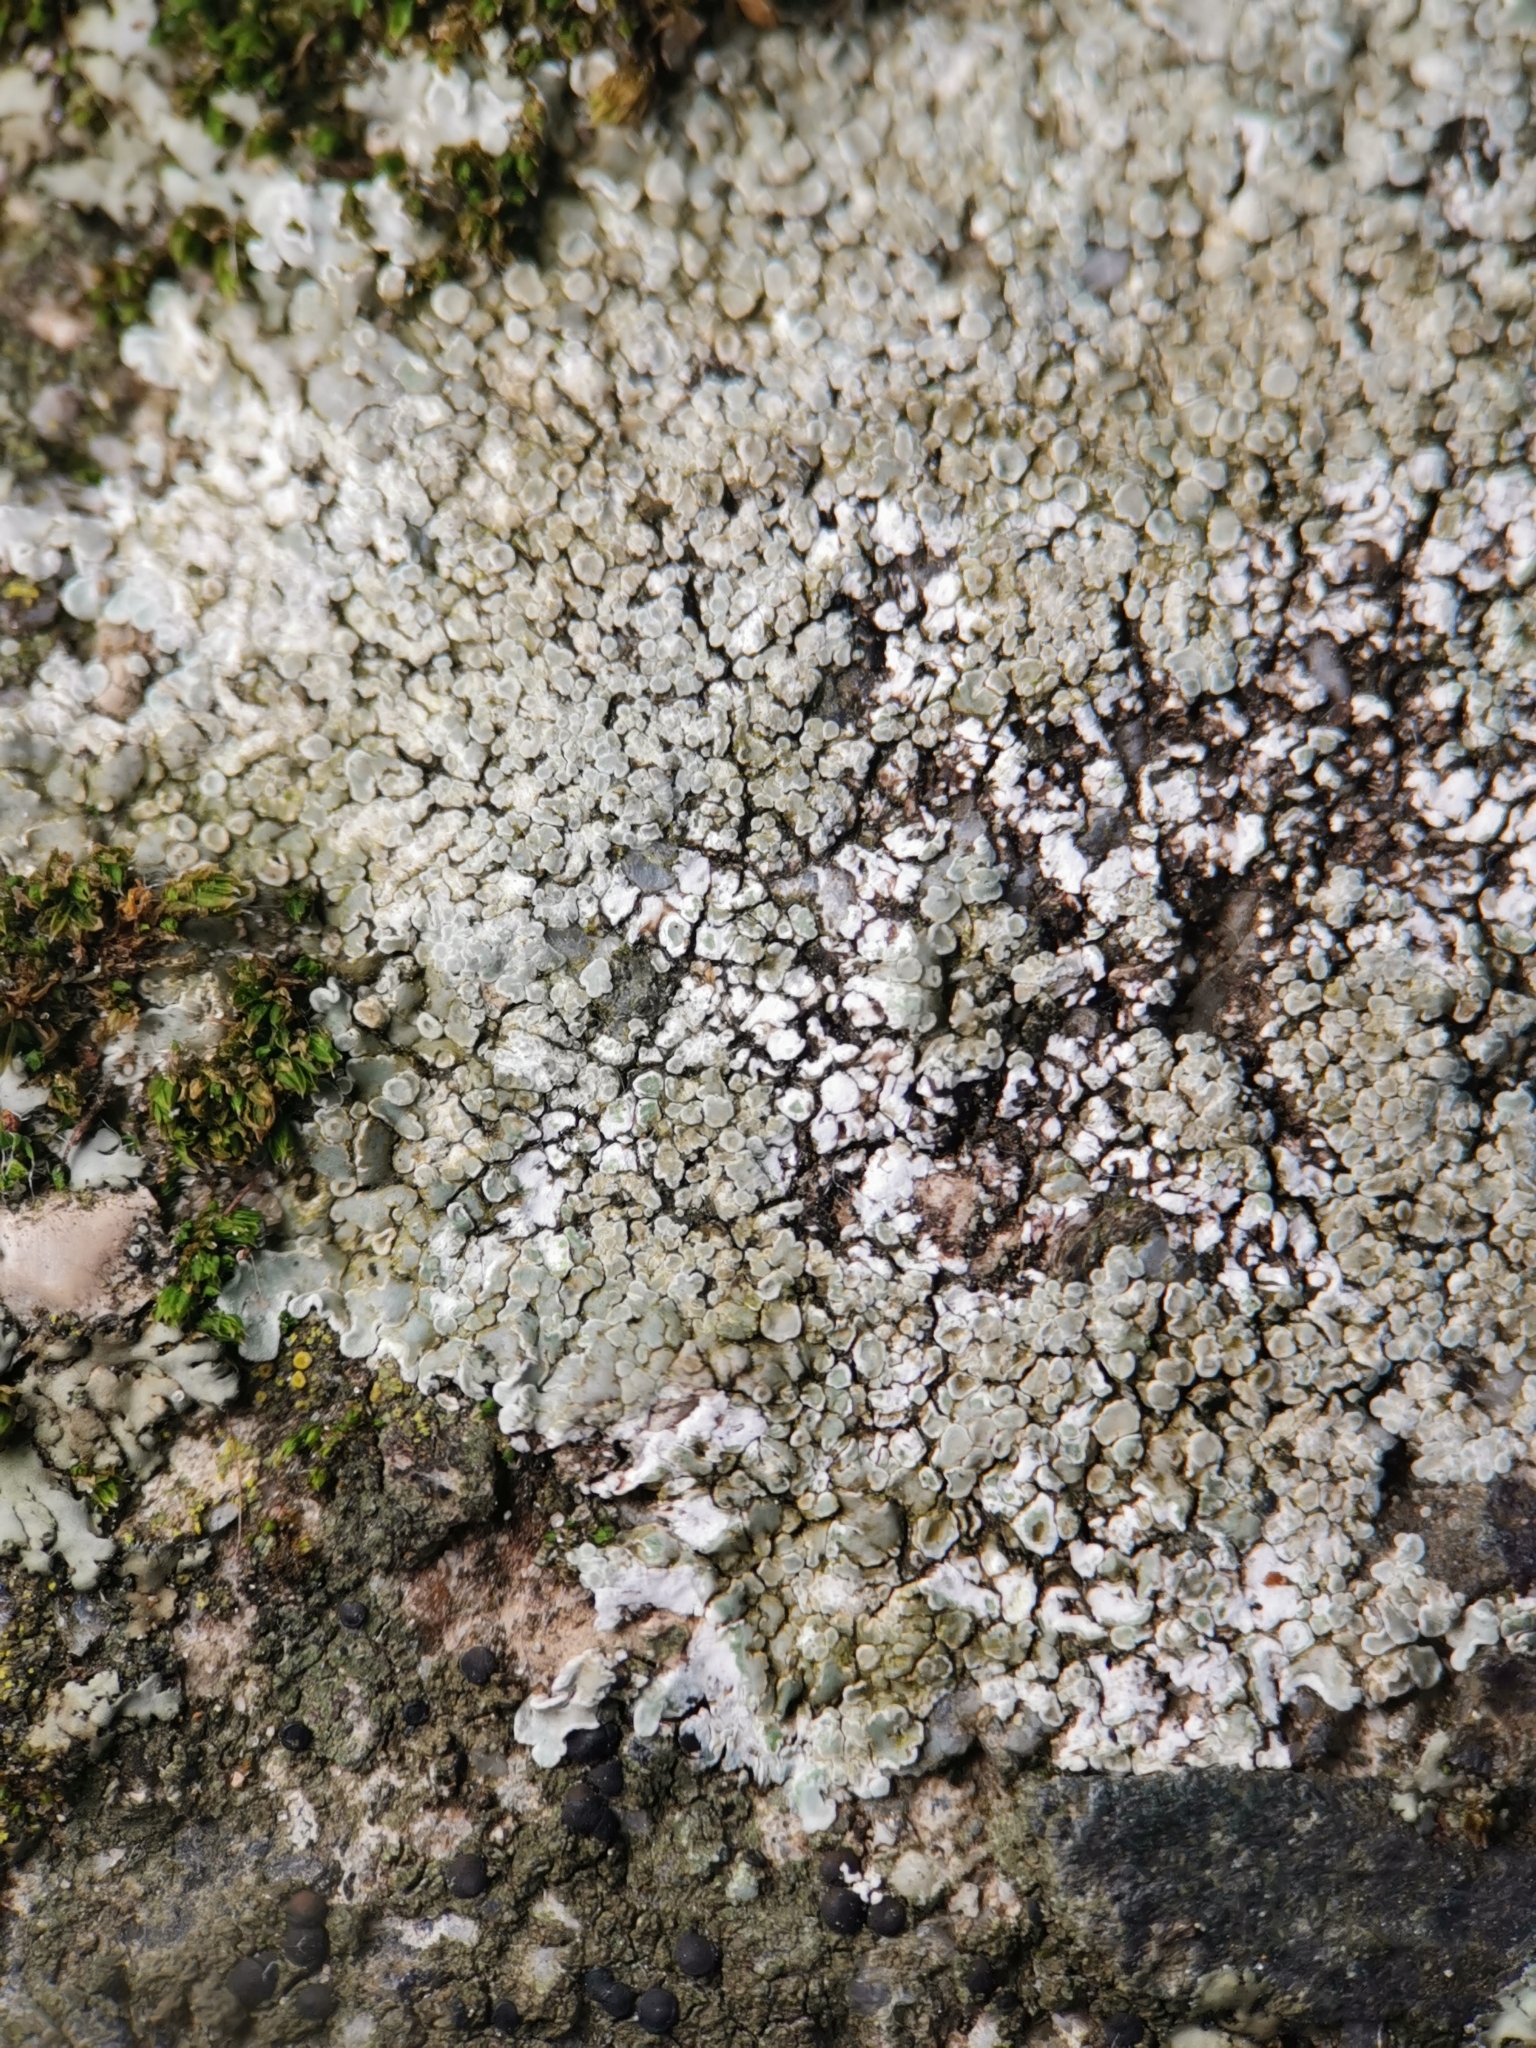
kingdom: Fungi
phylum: Ascomycota
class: Lecanoromycetes
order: Lecanorales
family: Lecanoraceae
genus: Protoparmeliopsis
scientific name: Protoparmeliopsis muralis
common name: Stonewall rim lichen
